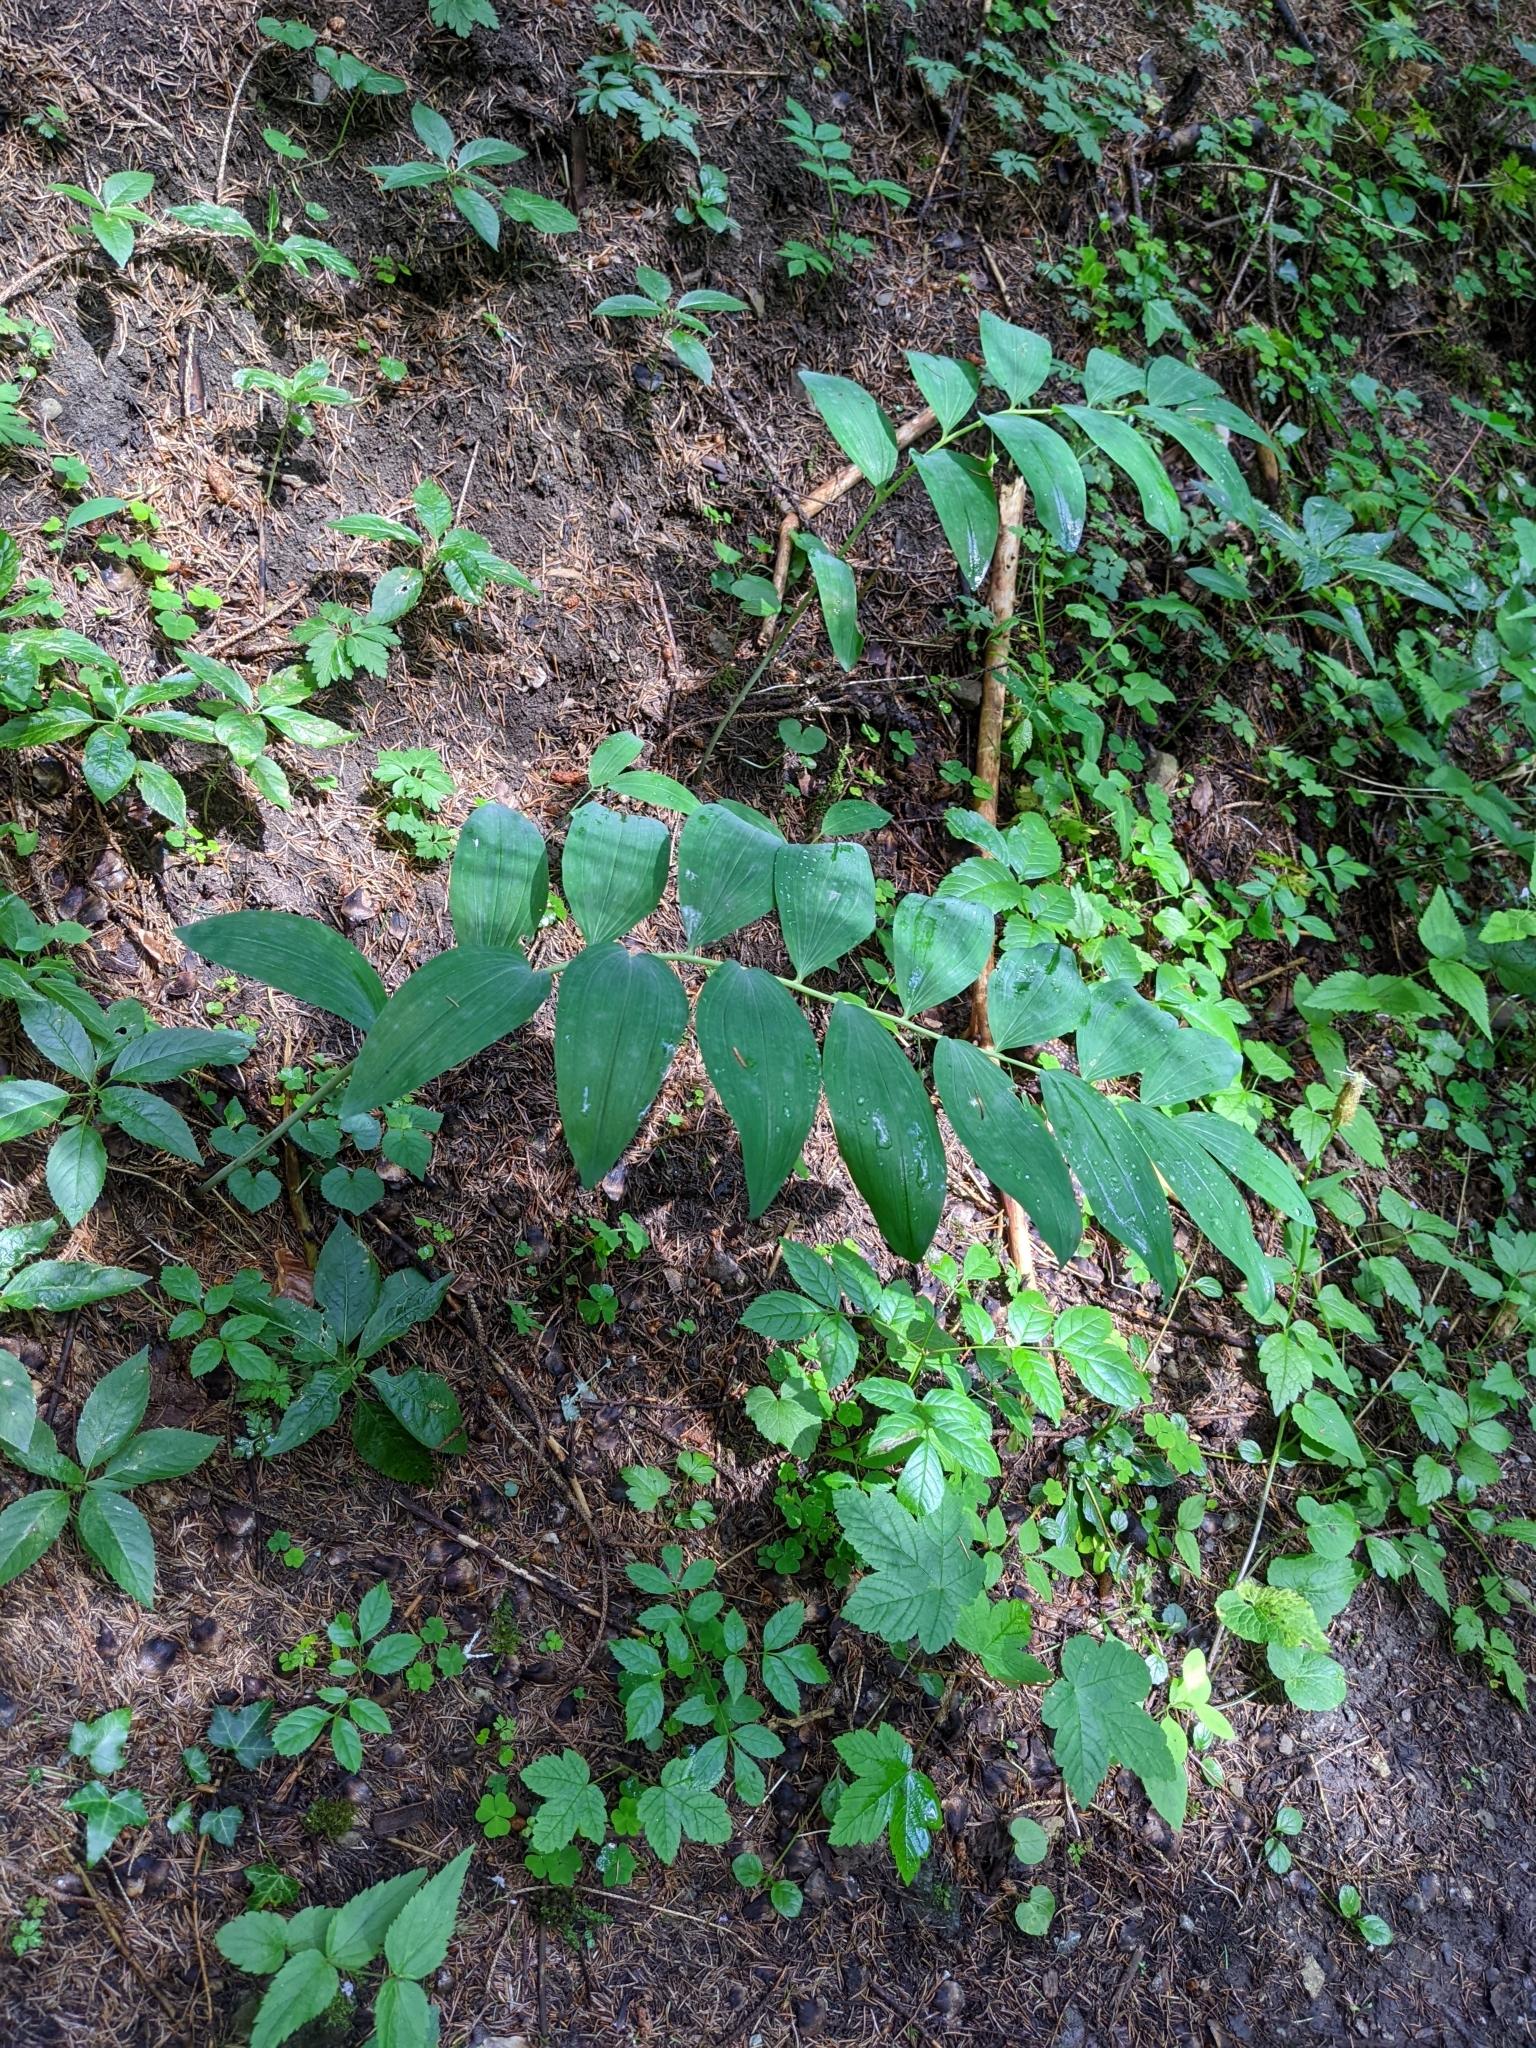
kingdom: Plantae
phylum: Tracheophyta
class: Liliopsida
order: Asparagales
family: Asparagaceae
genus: Polygonatum
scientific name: Polygonatum multiflorum
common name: Solomon's-seal
